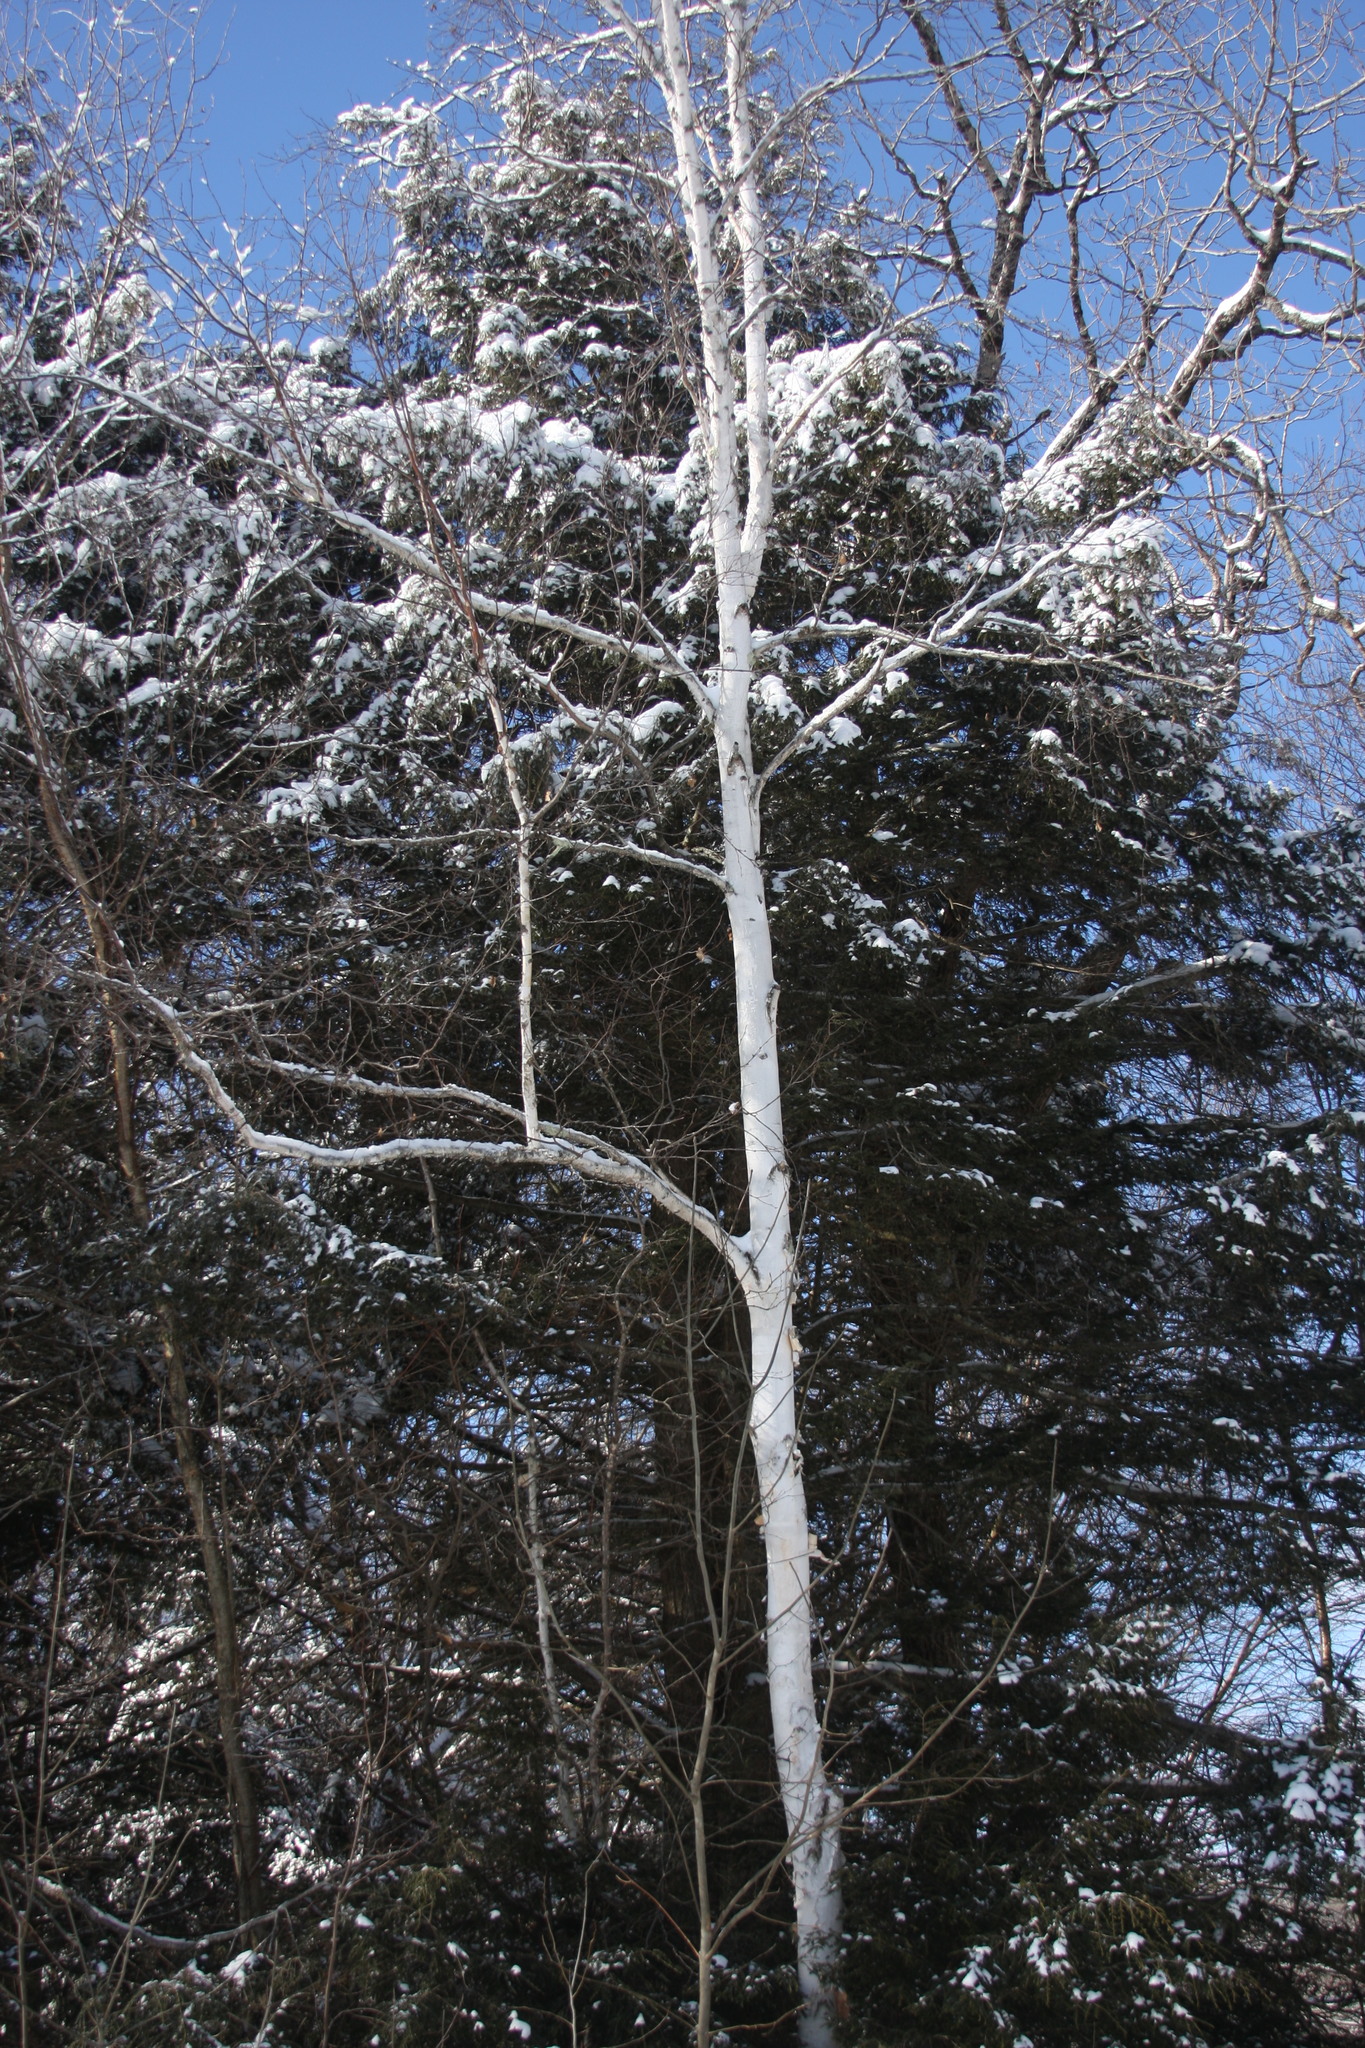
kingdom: Plantae
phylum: Tracheophyta
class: Magnoliopsida
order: Fagales
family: Betulaceae
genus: Betula
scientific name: Betula papyrifera
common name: Paper birch
